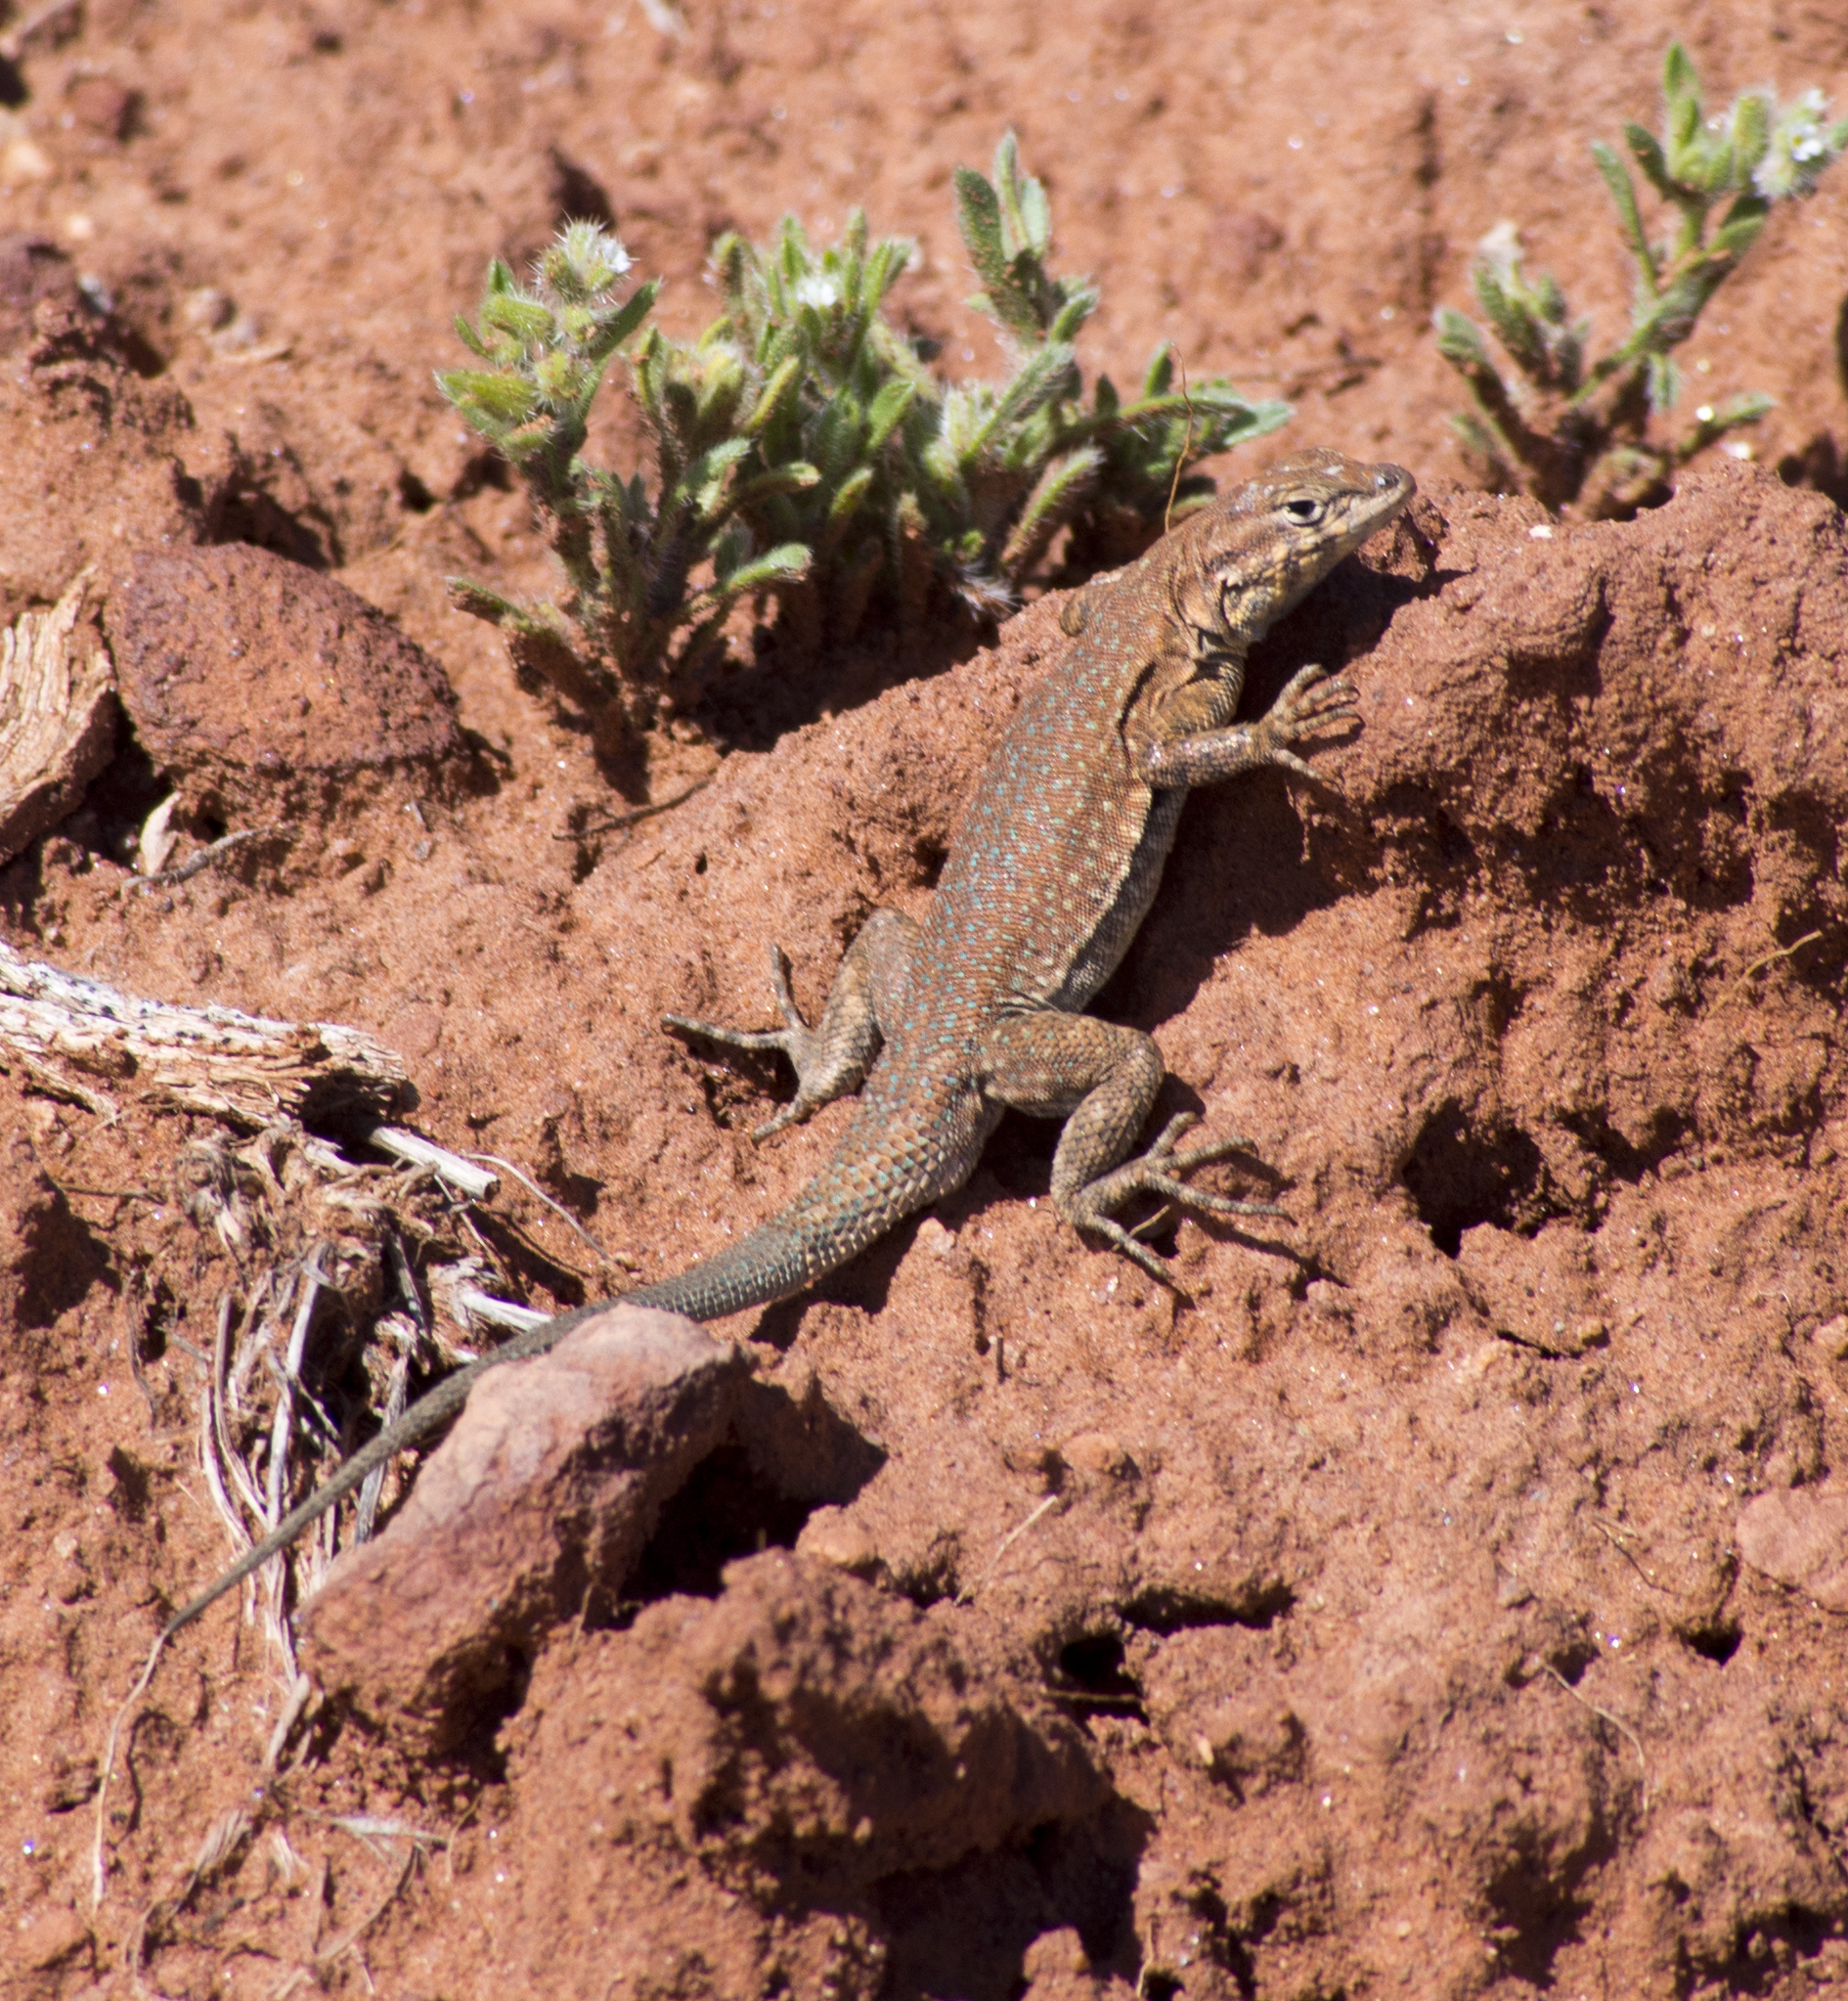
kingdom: Animalia
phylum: Chordata
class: Squamata
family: Phrynosomatidae
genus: Uta
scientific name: Uta stansburiana
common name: Side-blotched lizard
